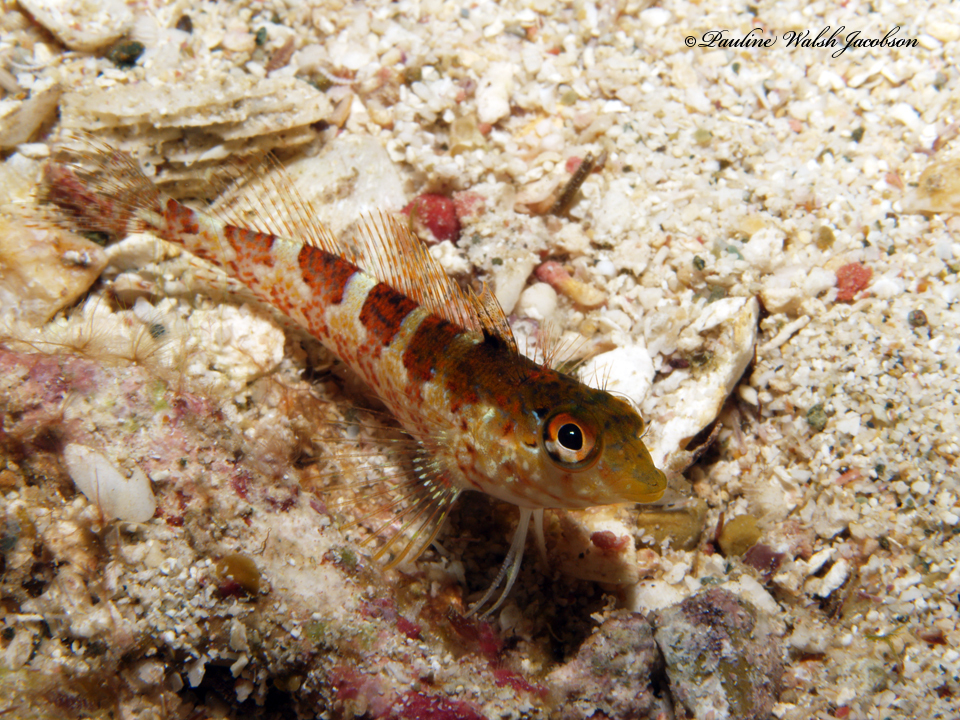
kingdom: Animalia
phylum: Chordata
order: Perciformes
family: Labrisomidae
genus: Malacoctenus
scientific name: Malacoctenus triangulatus
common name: Saddled blenny
